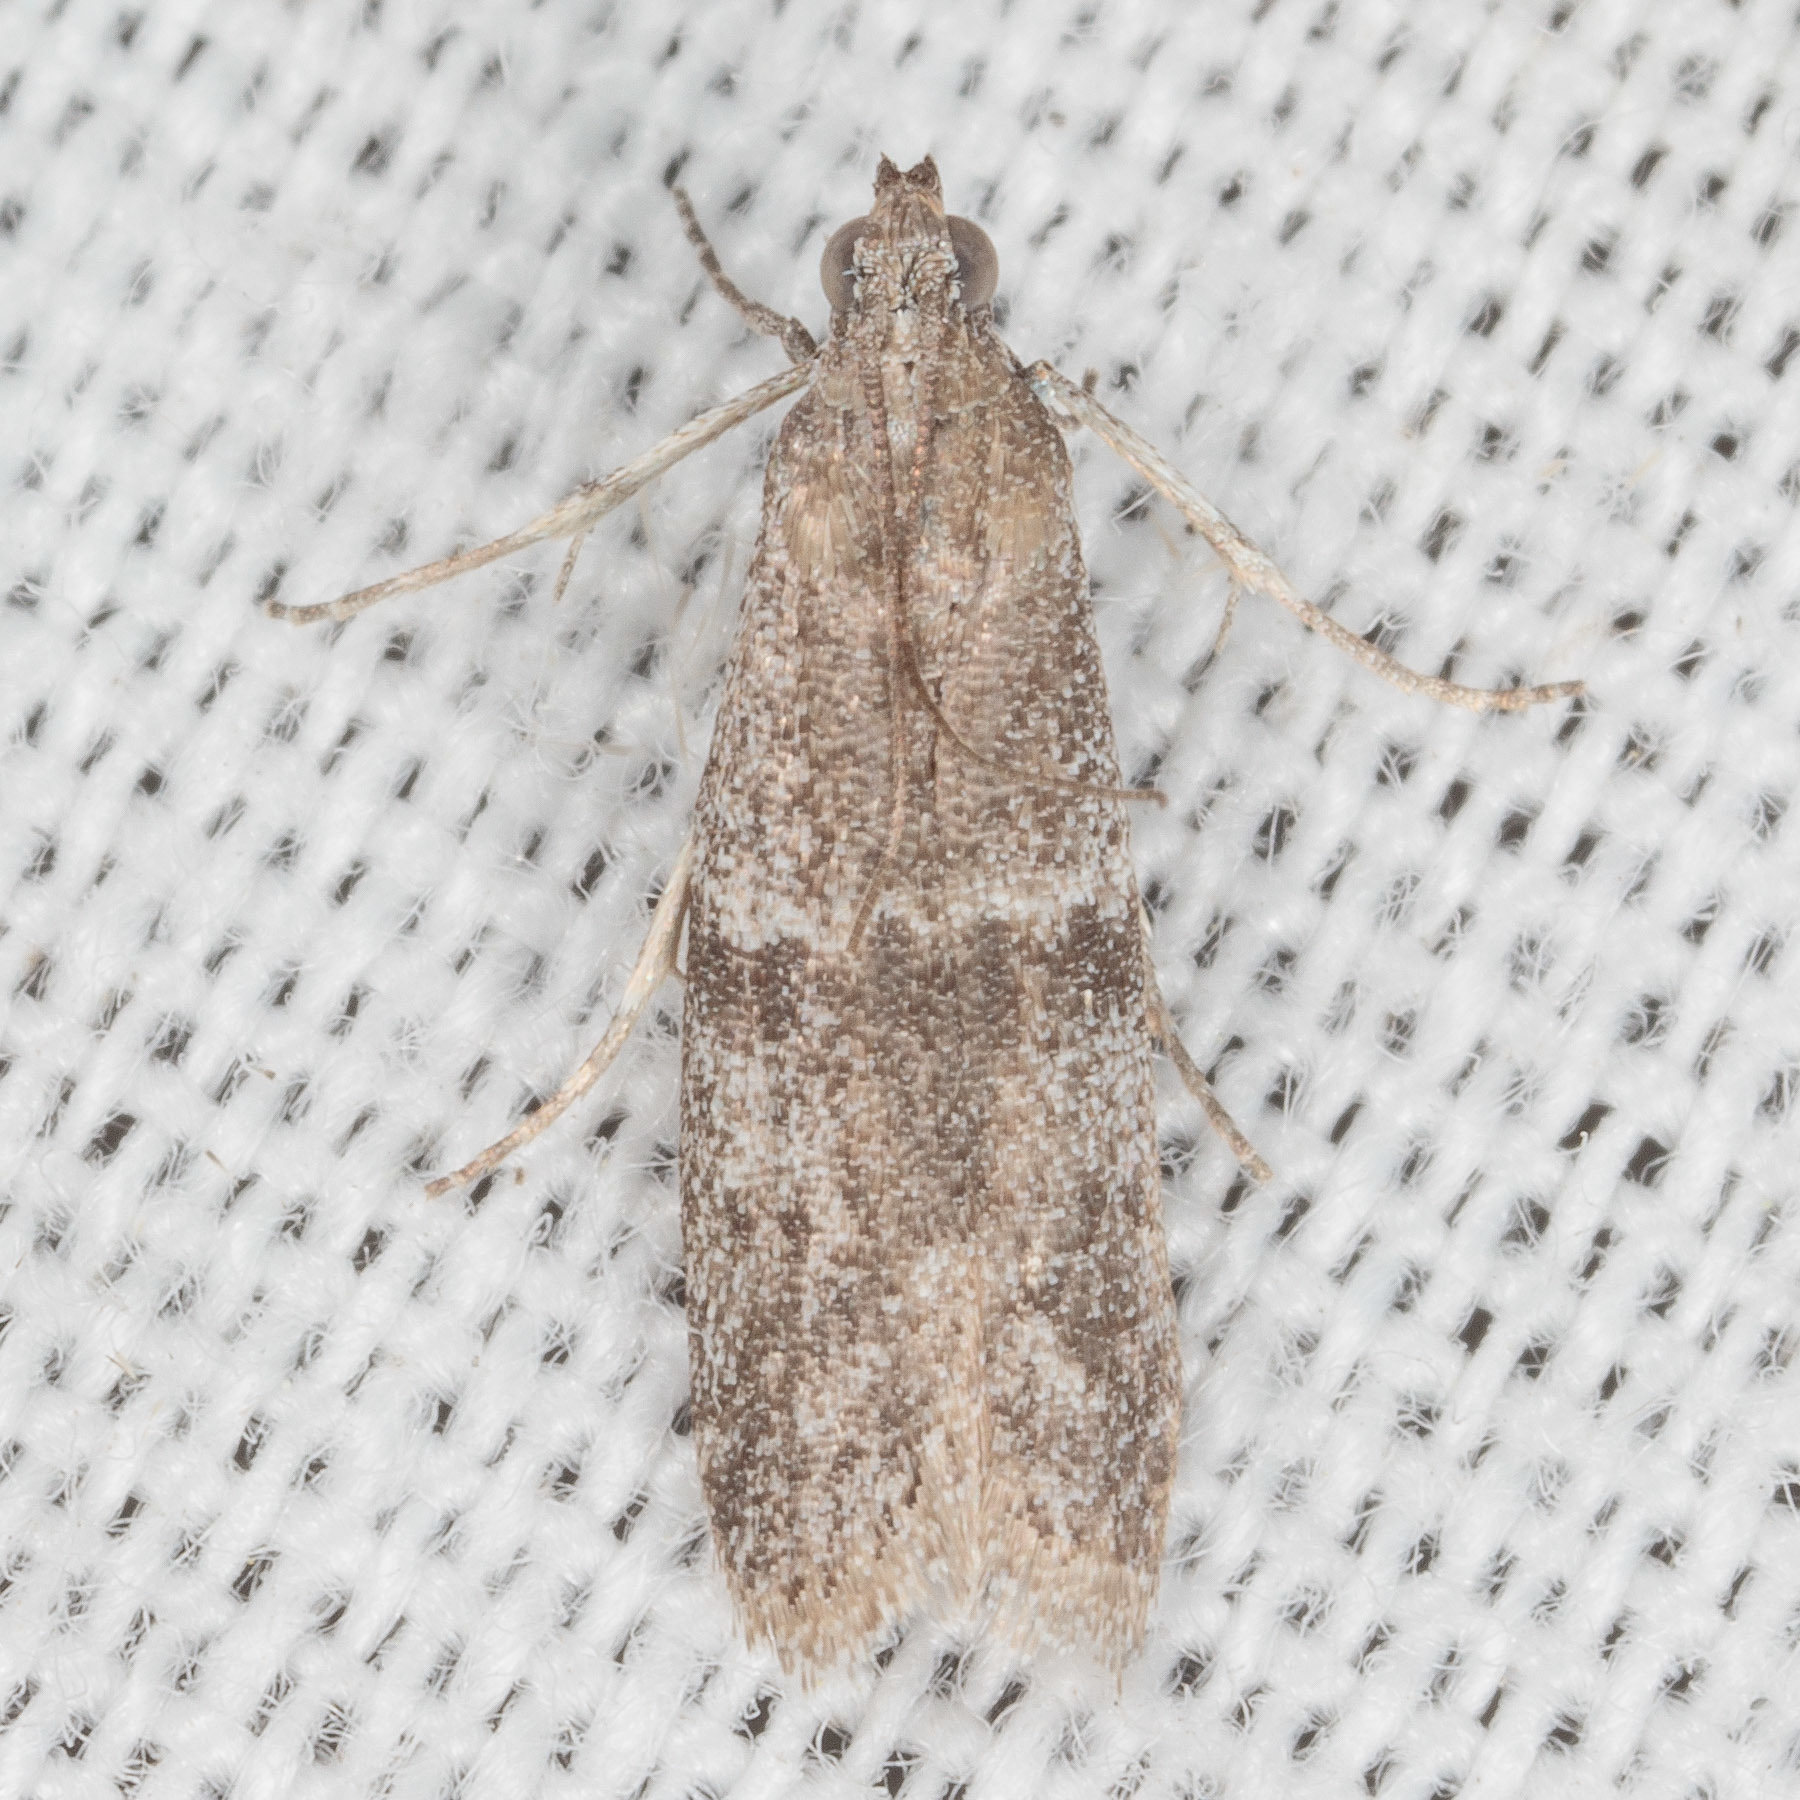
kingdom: Animalia
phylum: Arthropoda
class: Insecta
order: Lepidoptera
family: Pyralidae
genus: Ephestiodes
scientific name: Ephestiodes gilvescentella
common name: Moth
